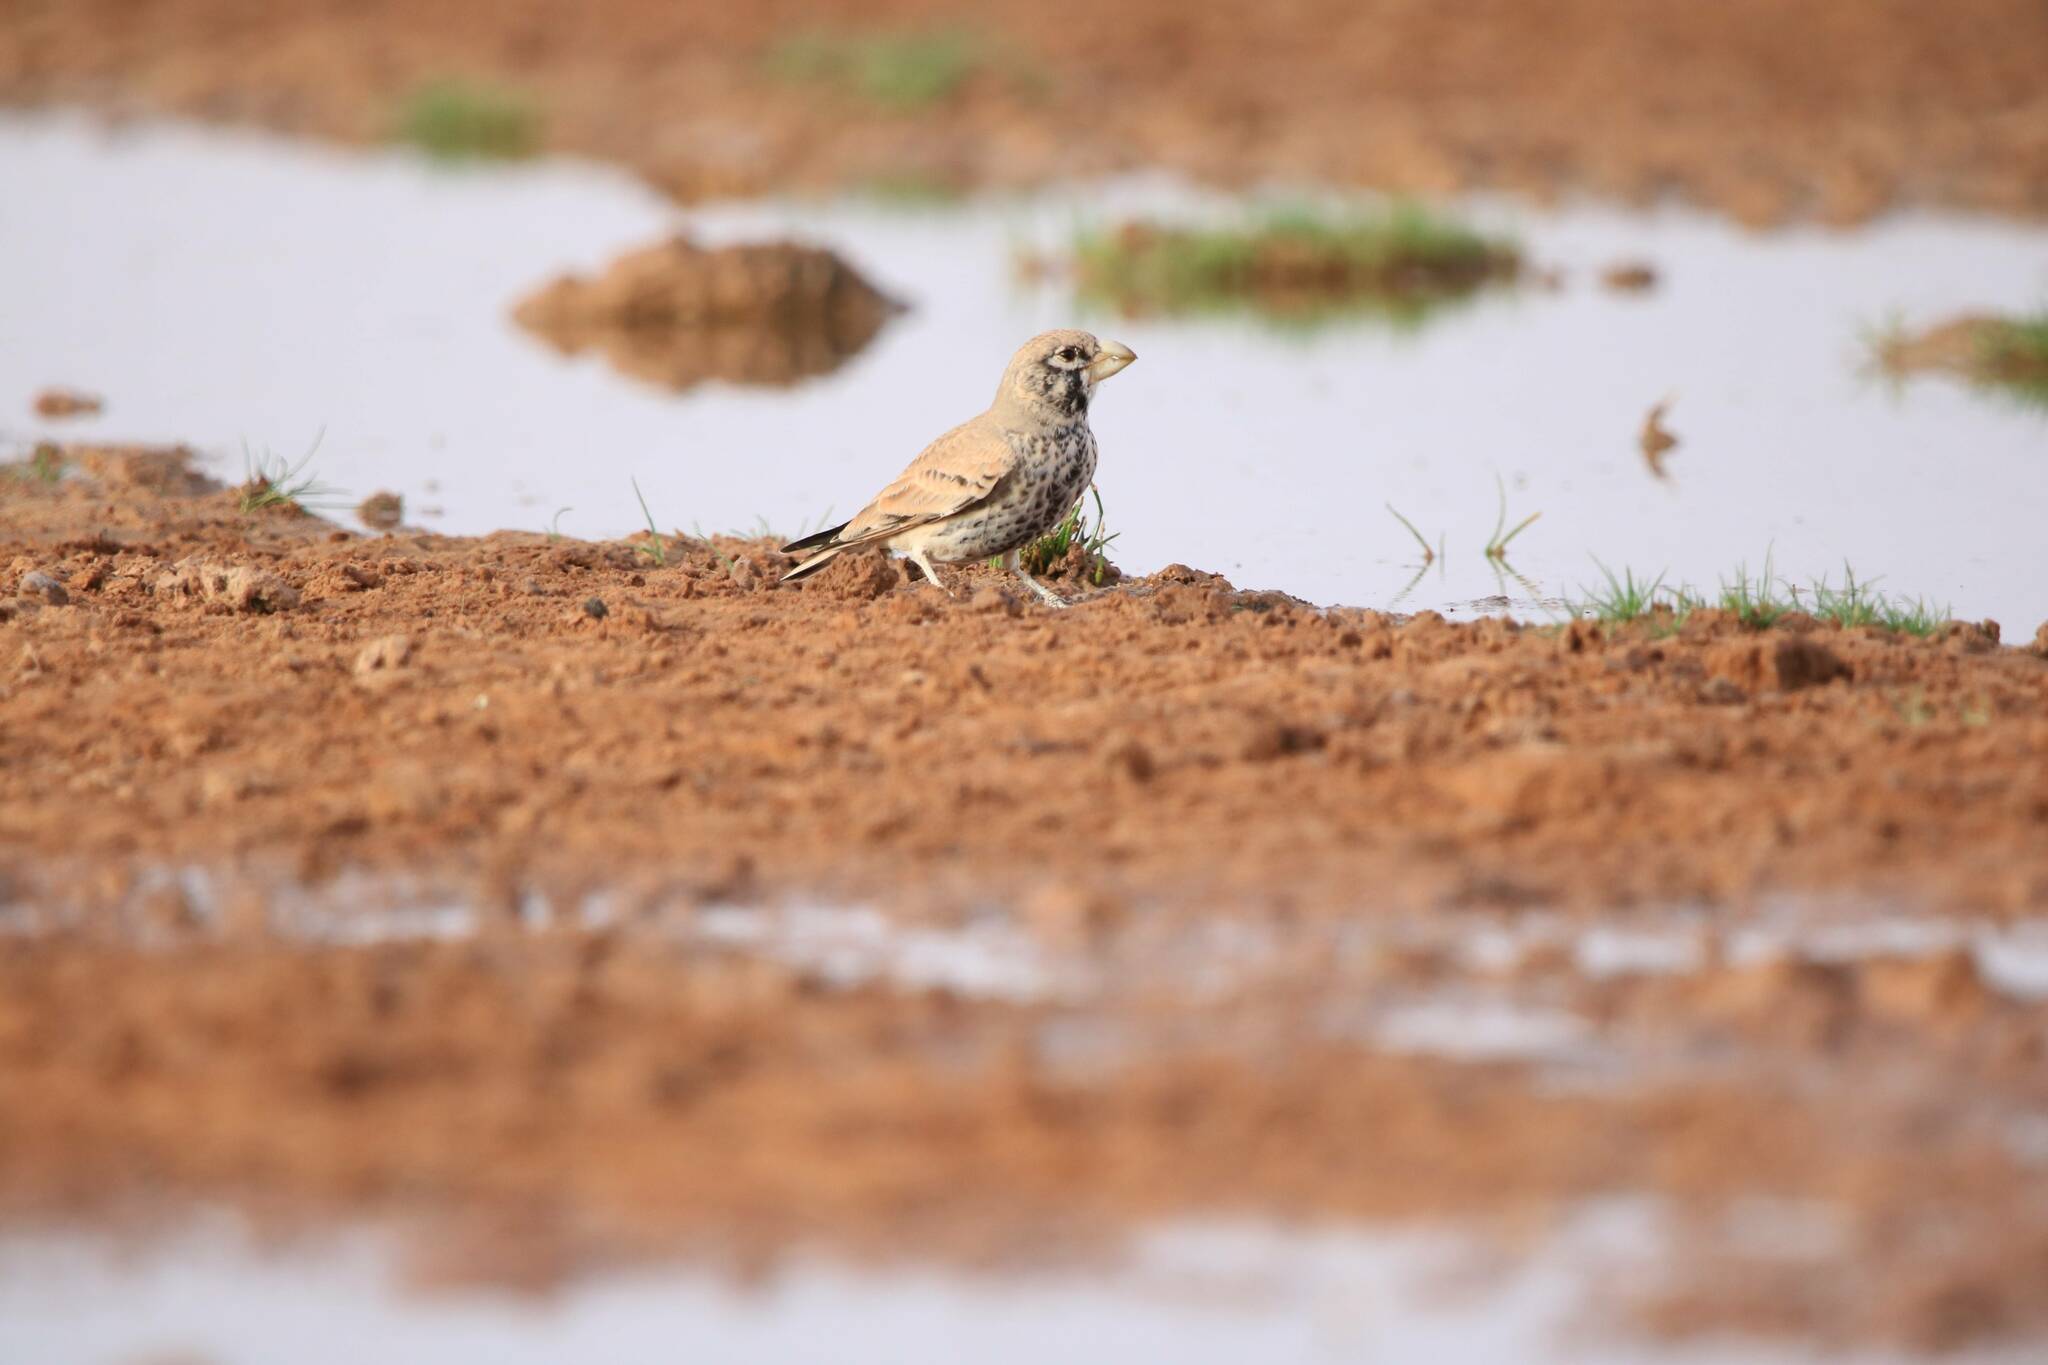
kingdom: Animalia
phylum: Chordata
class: Aves
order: Passeriformes
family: Alaudidae
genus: Ramphocoris
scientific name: Ramphocoris clotbey
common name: Thick-billed lark
